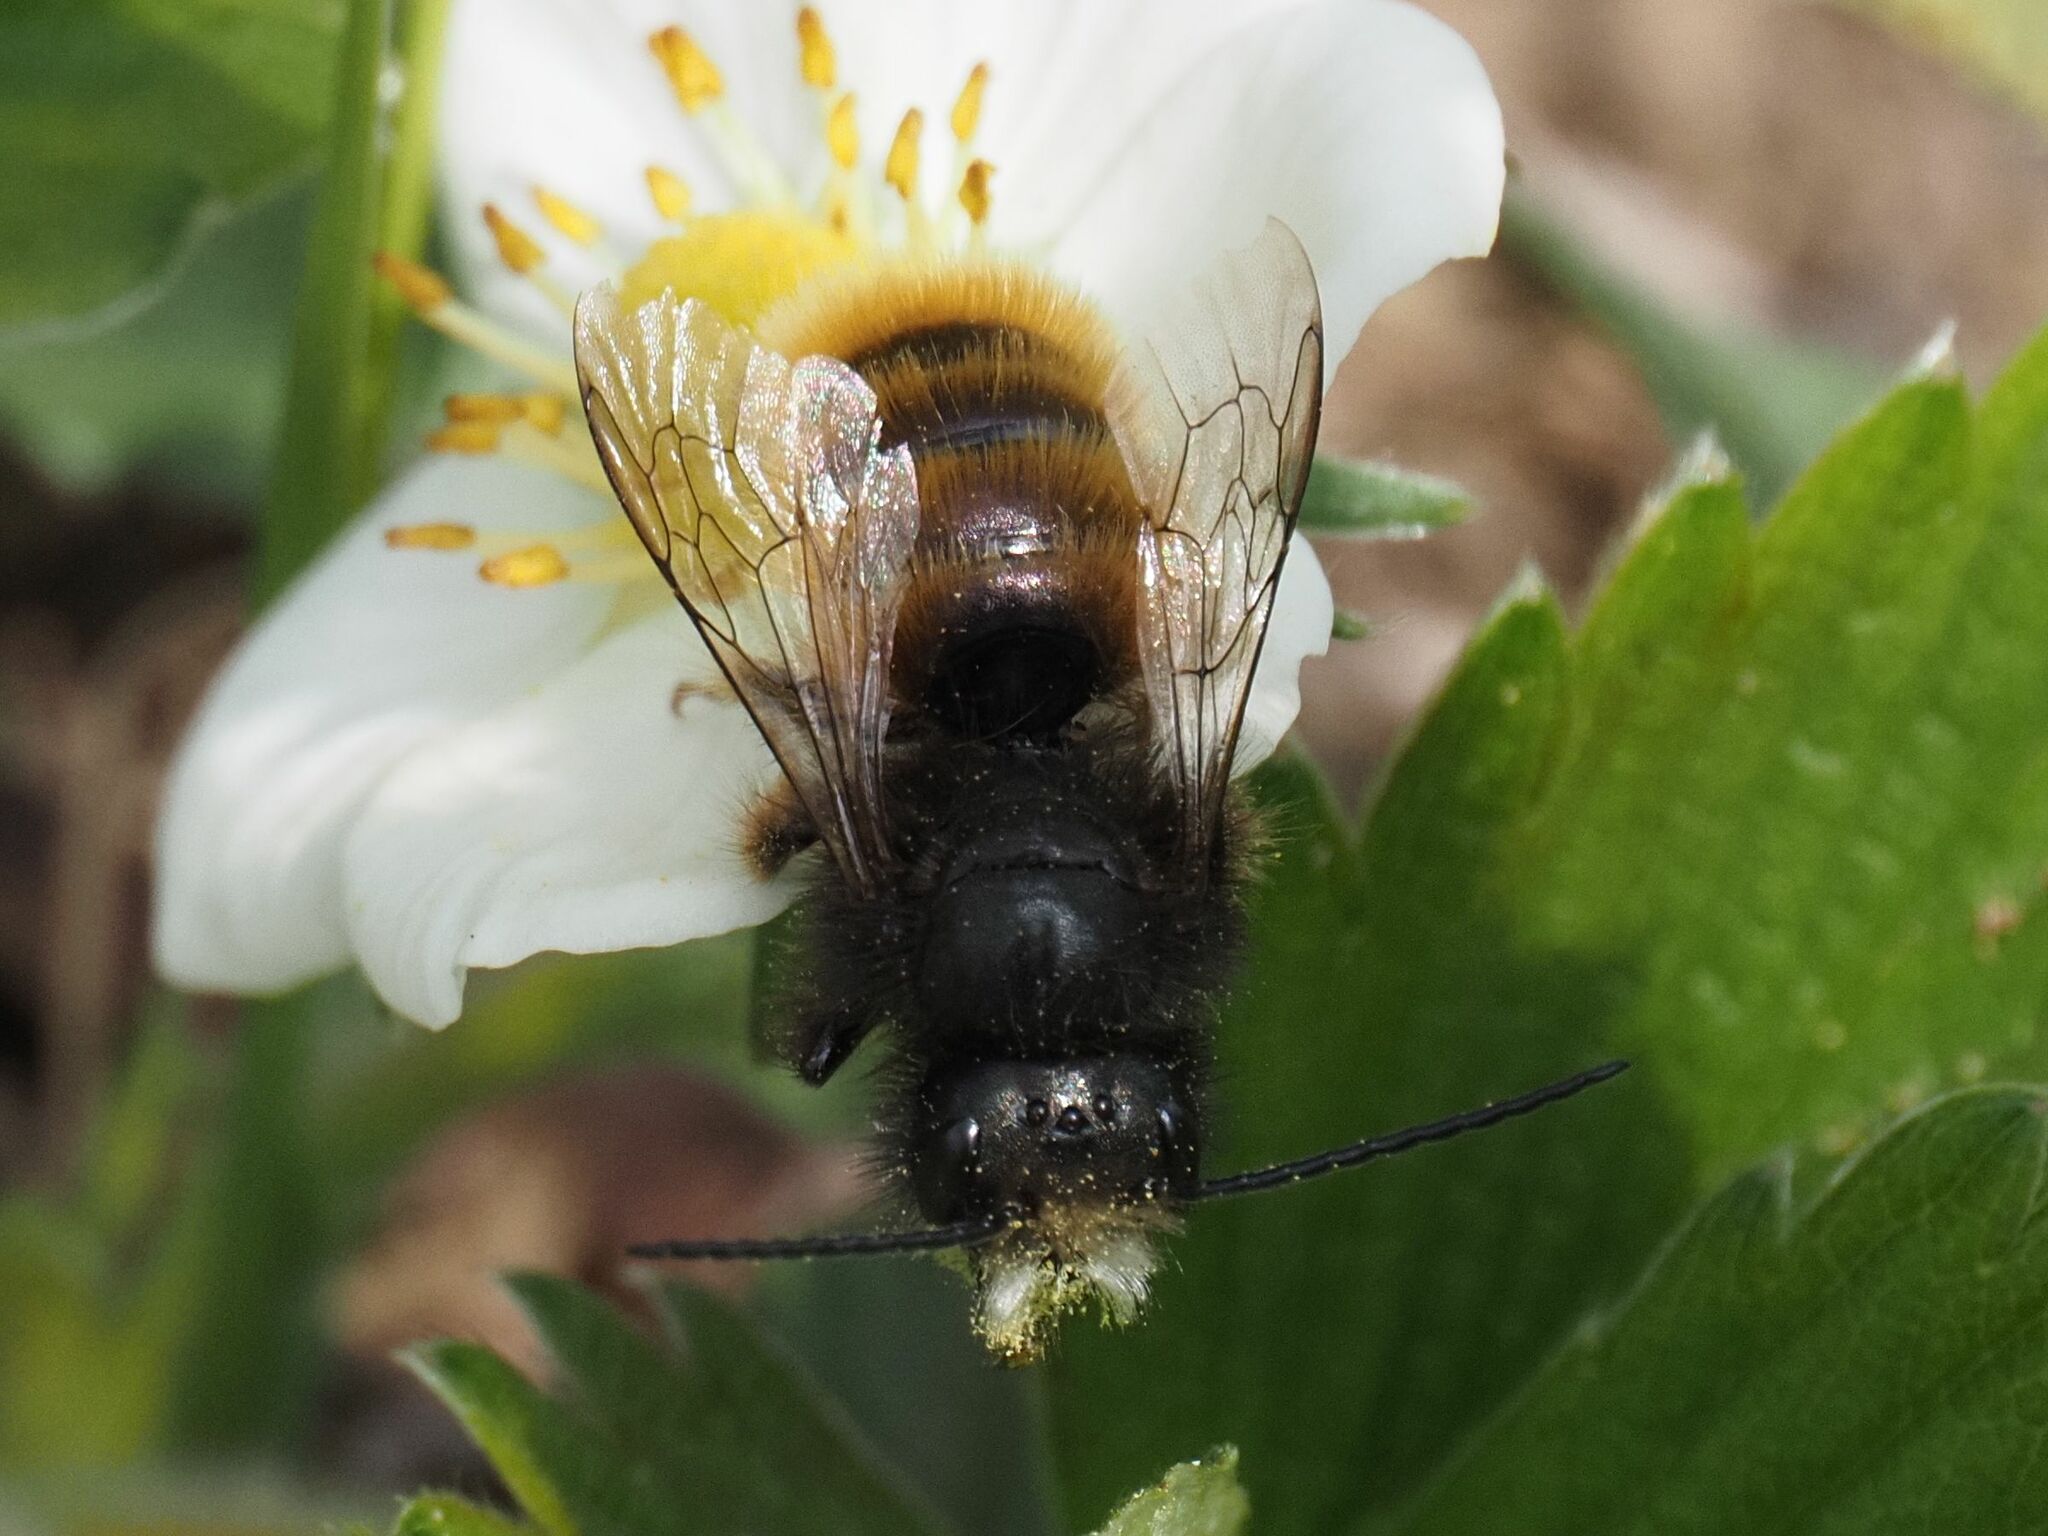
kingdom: Animalia
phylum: Arthropoda
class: Insecta
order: Hymenoptera
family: Megachilidae
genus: Osmia
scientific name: Osmia cornuta
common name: Mason bee
